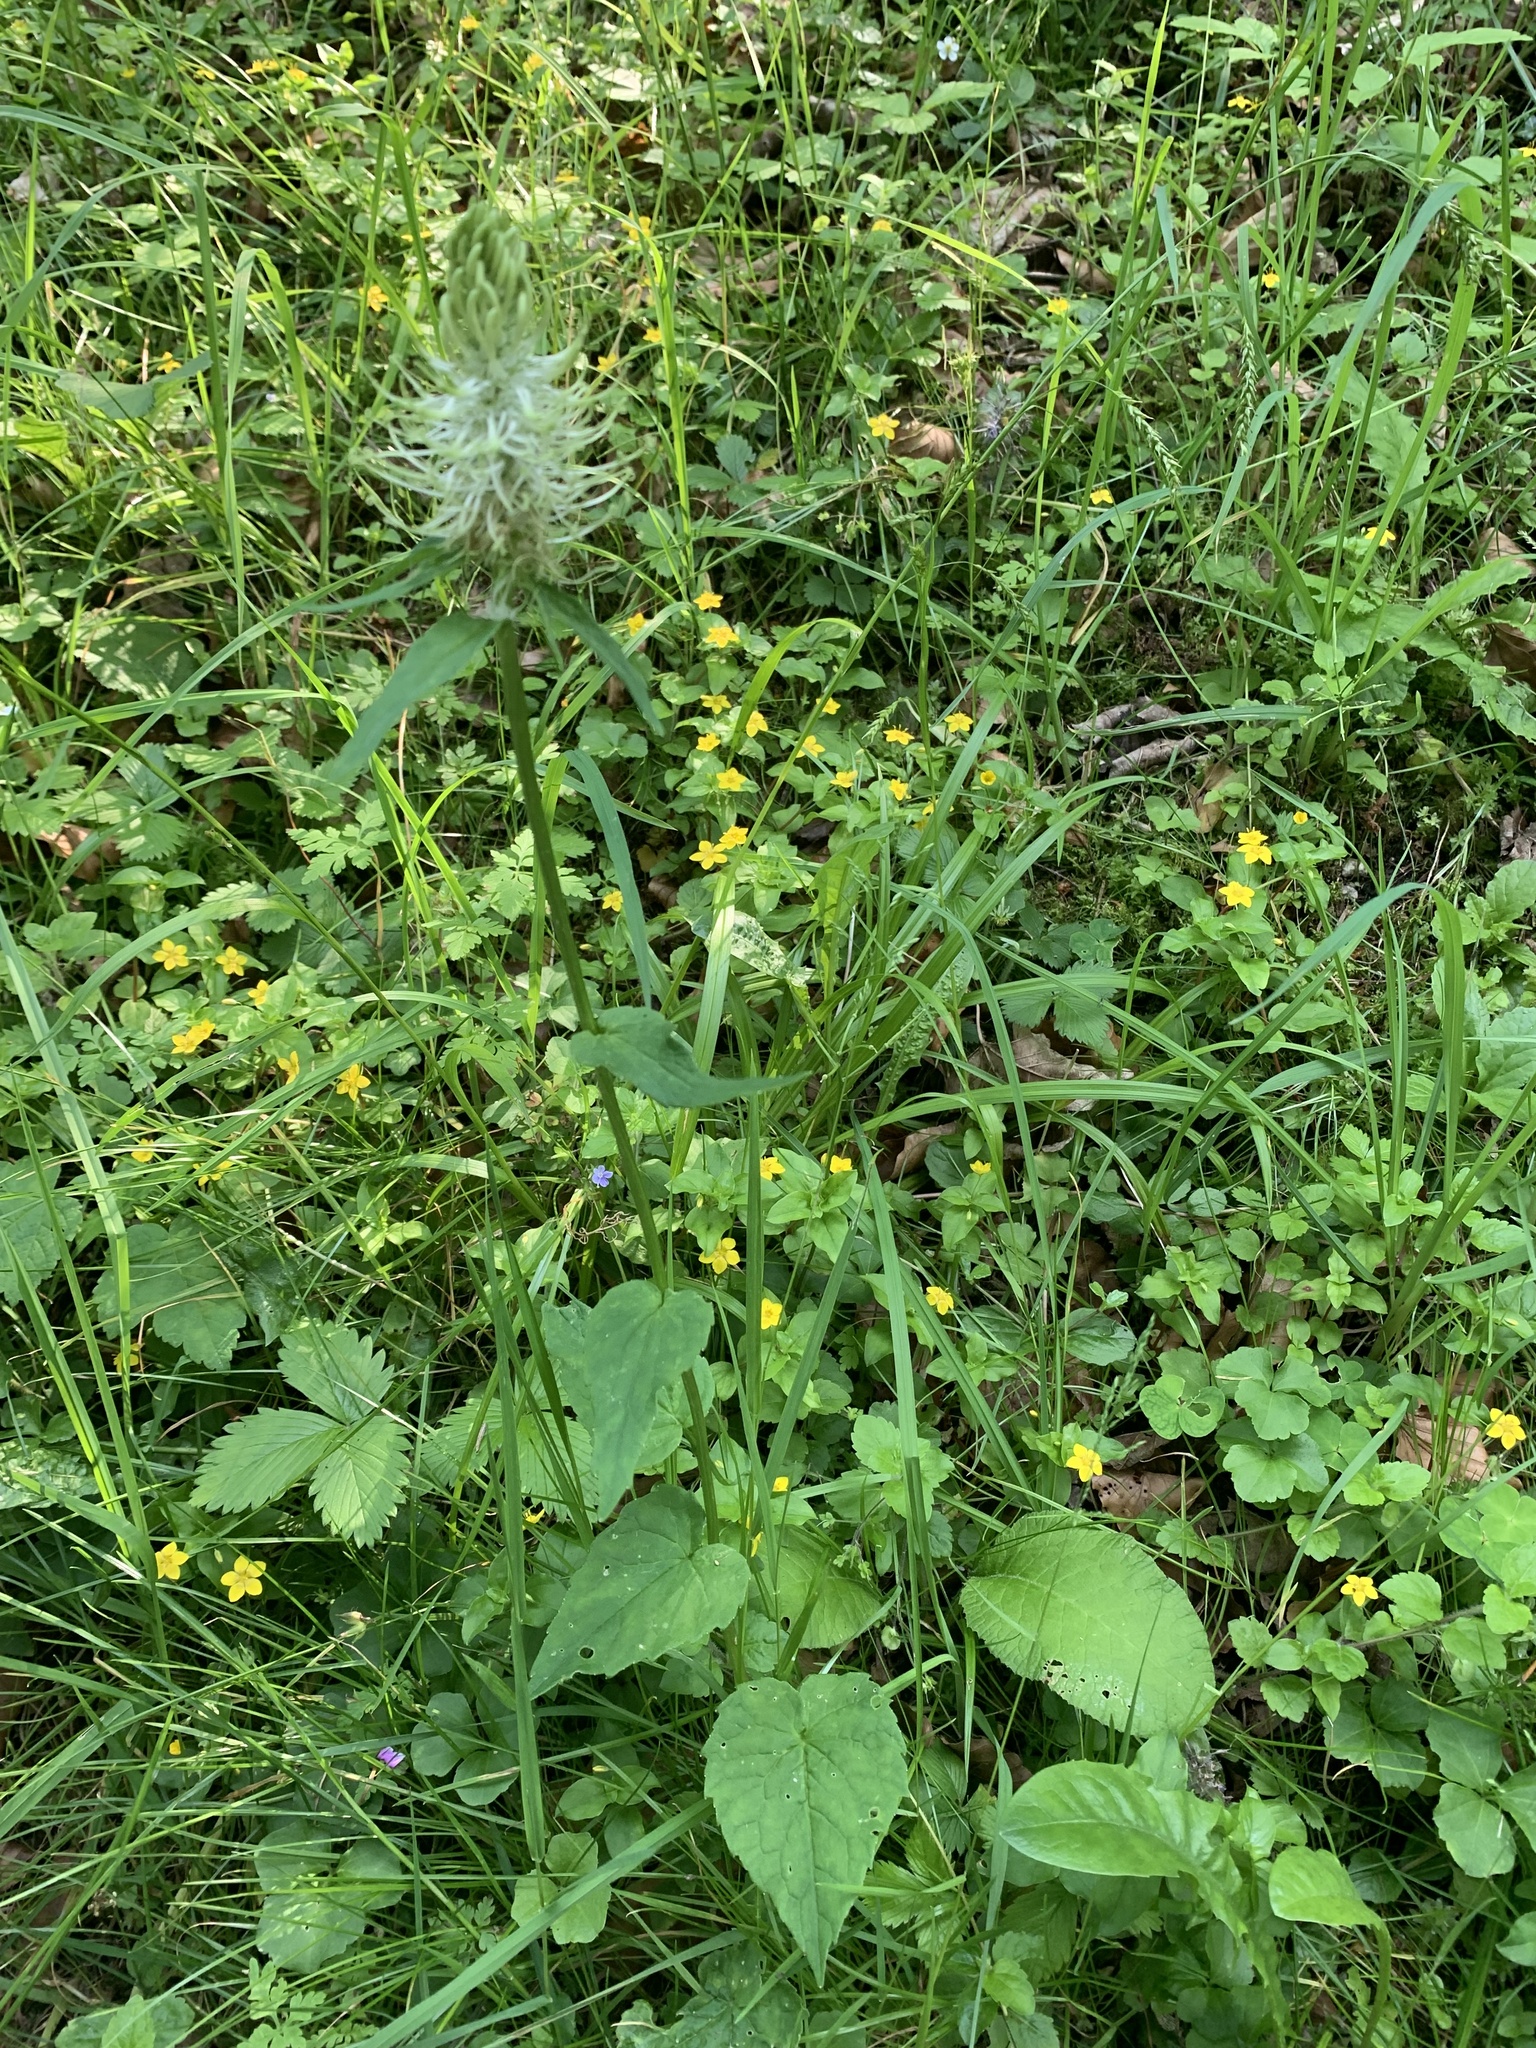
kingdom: Plantae
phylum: Tracheophyta
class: Magnoliopsida
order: Asterales
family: Campanulaceae
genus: Phyteuma
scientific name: Phyteuma spicatum
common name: Spiked rampion
